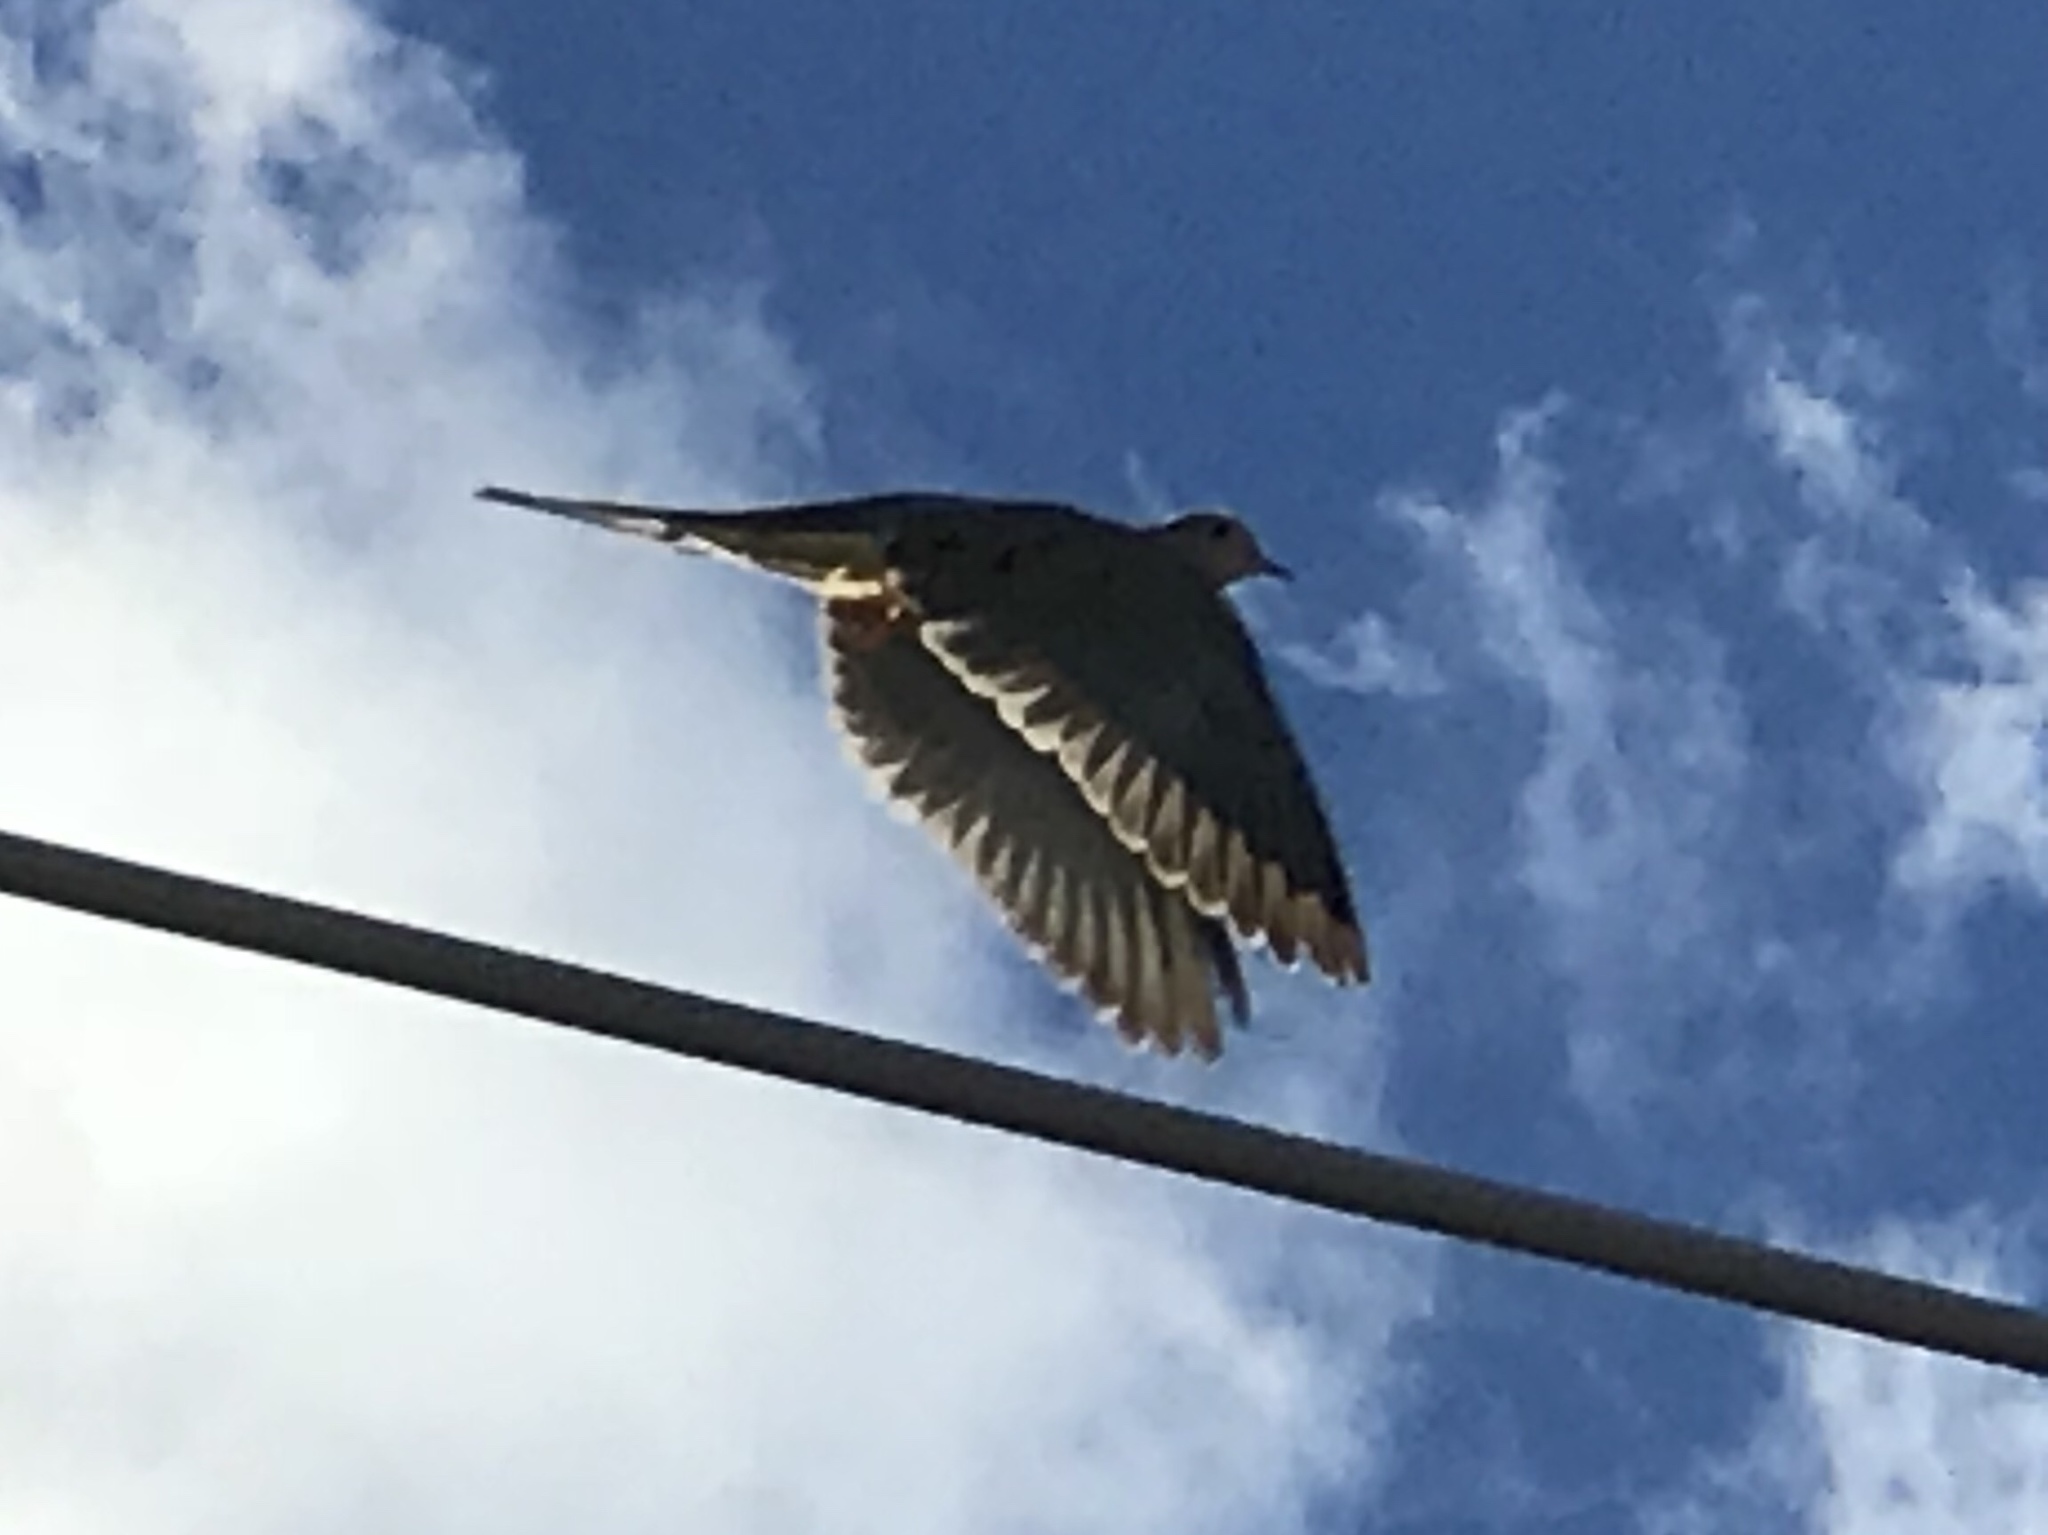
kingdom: Animalia
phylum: Chordata
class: Aves
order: Columbiformes
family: Columbidae
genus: Zenaida
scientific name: Zenaida macroura
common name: Mourning dove
